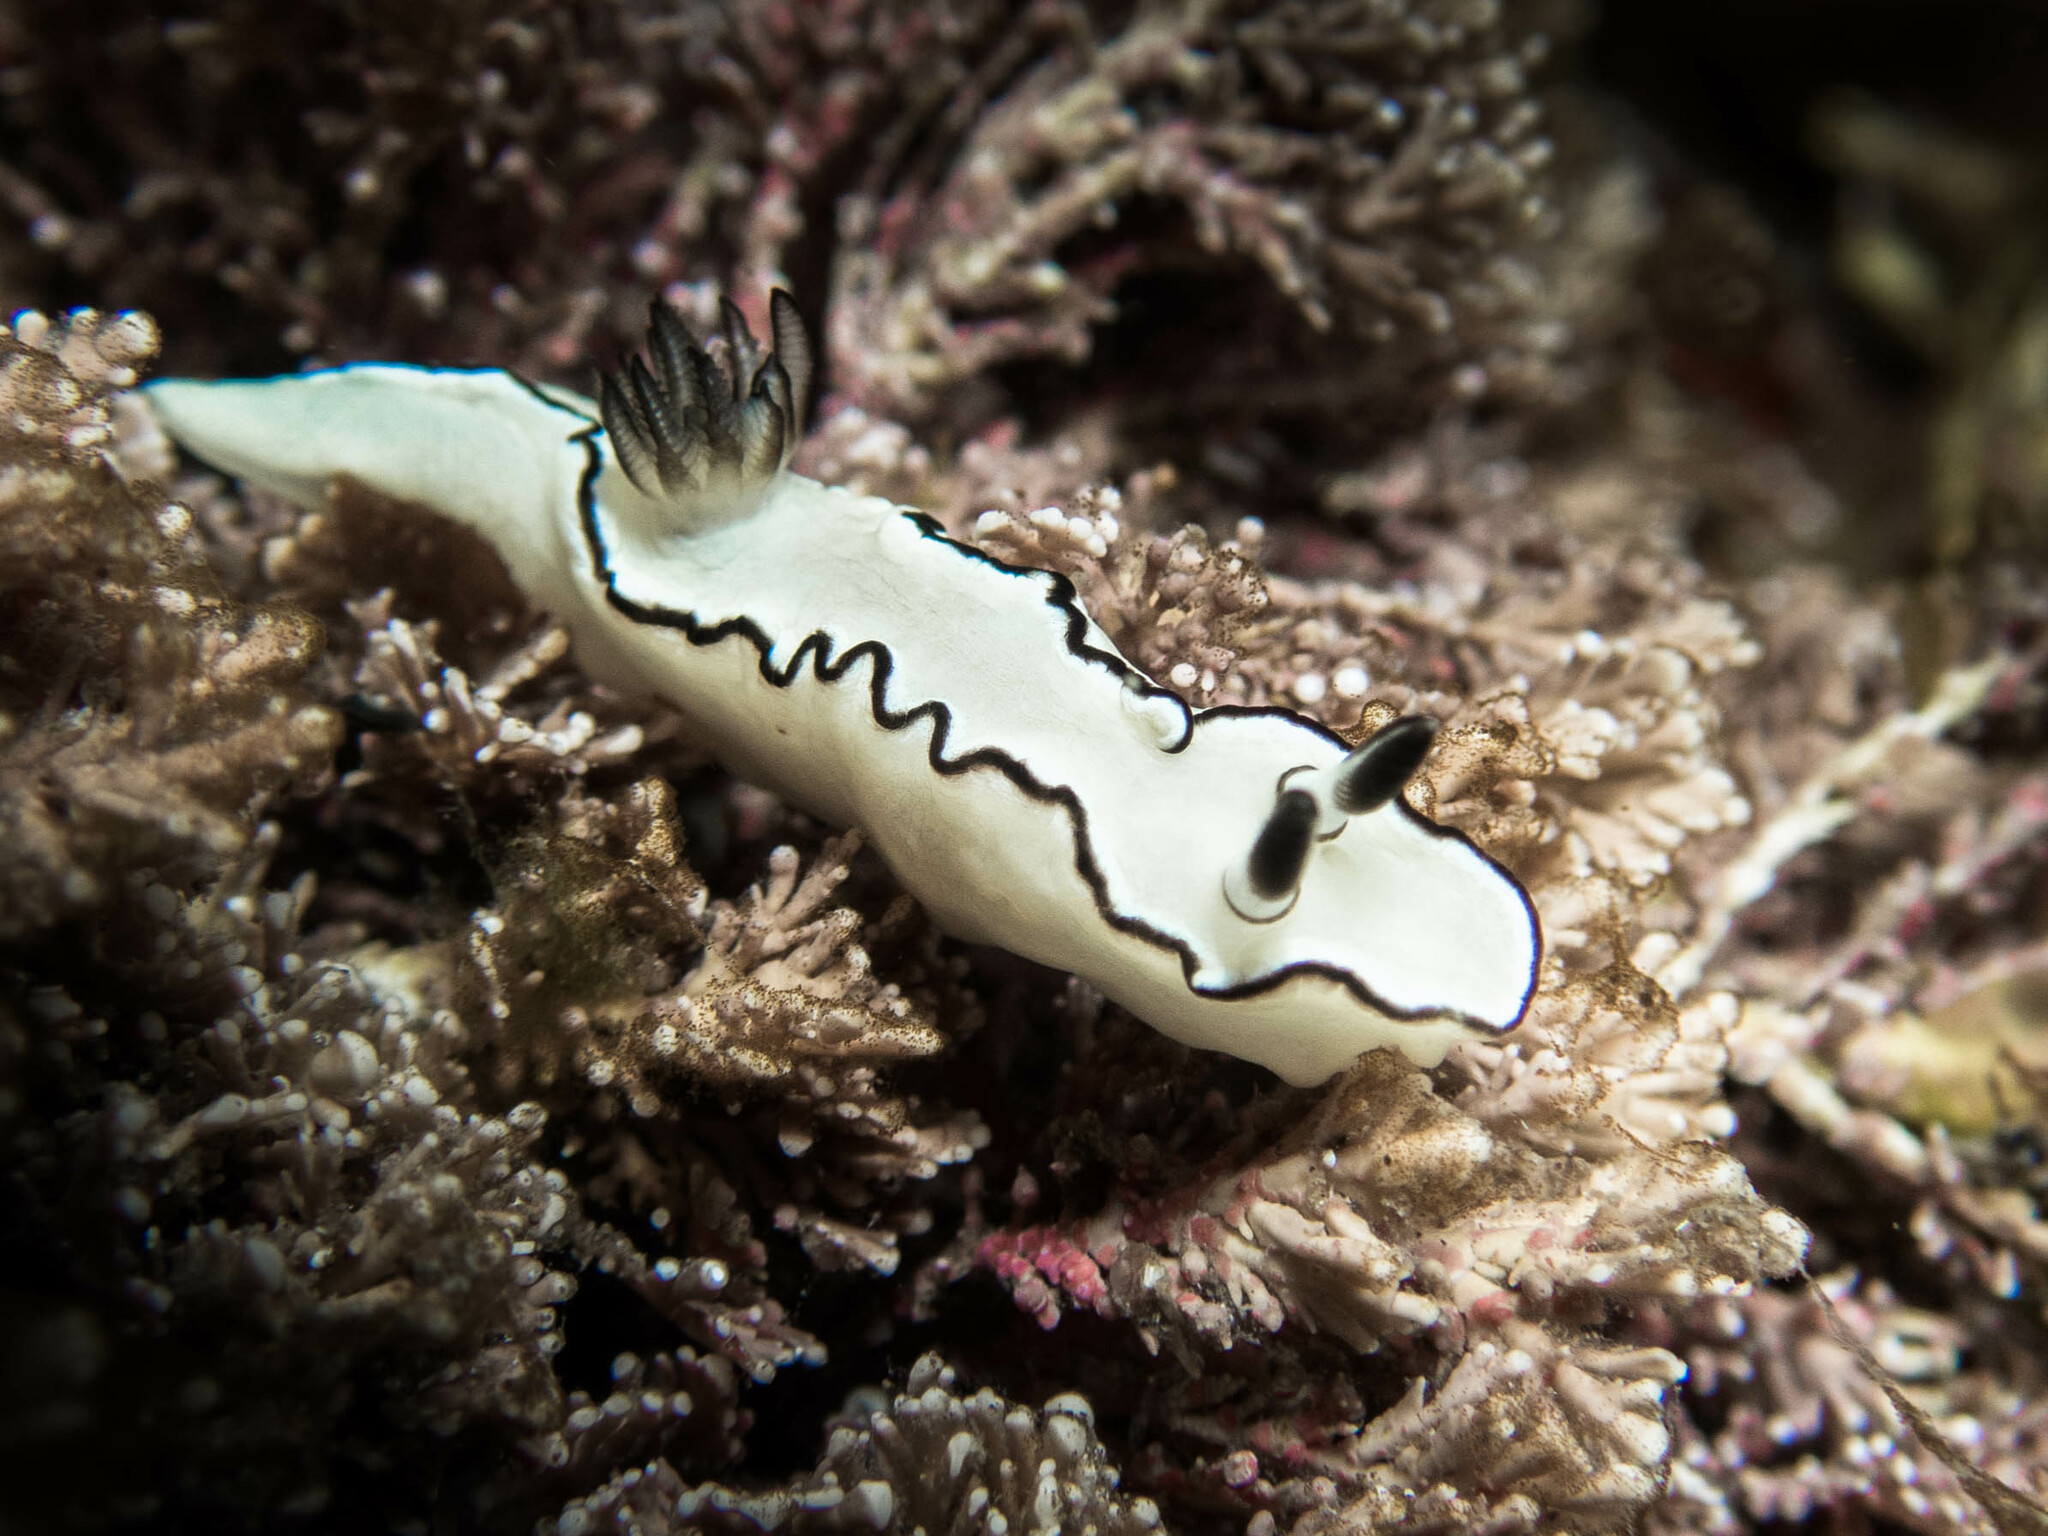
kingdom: Animalia
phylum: Mollusca
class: Gastropoda
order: Nudibranchia
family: Chromodorididae
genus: Doriprismatica
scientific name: Doriprismatica atromarginata
